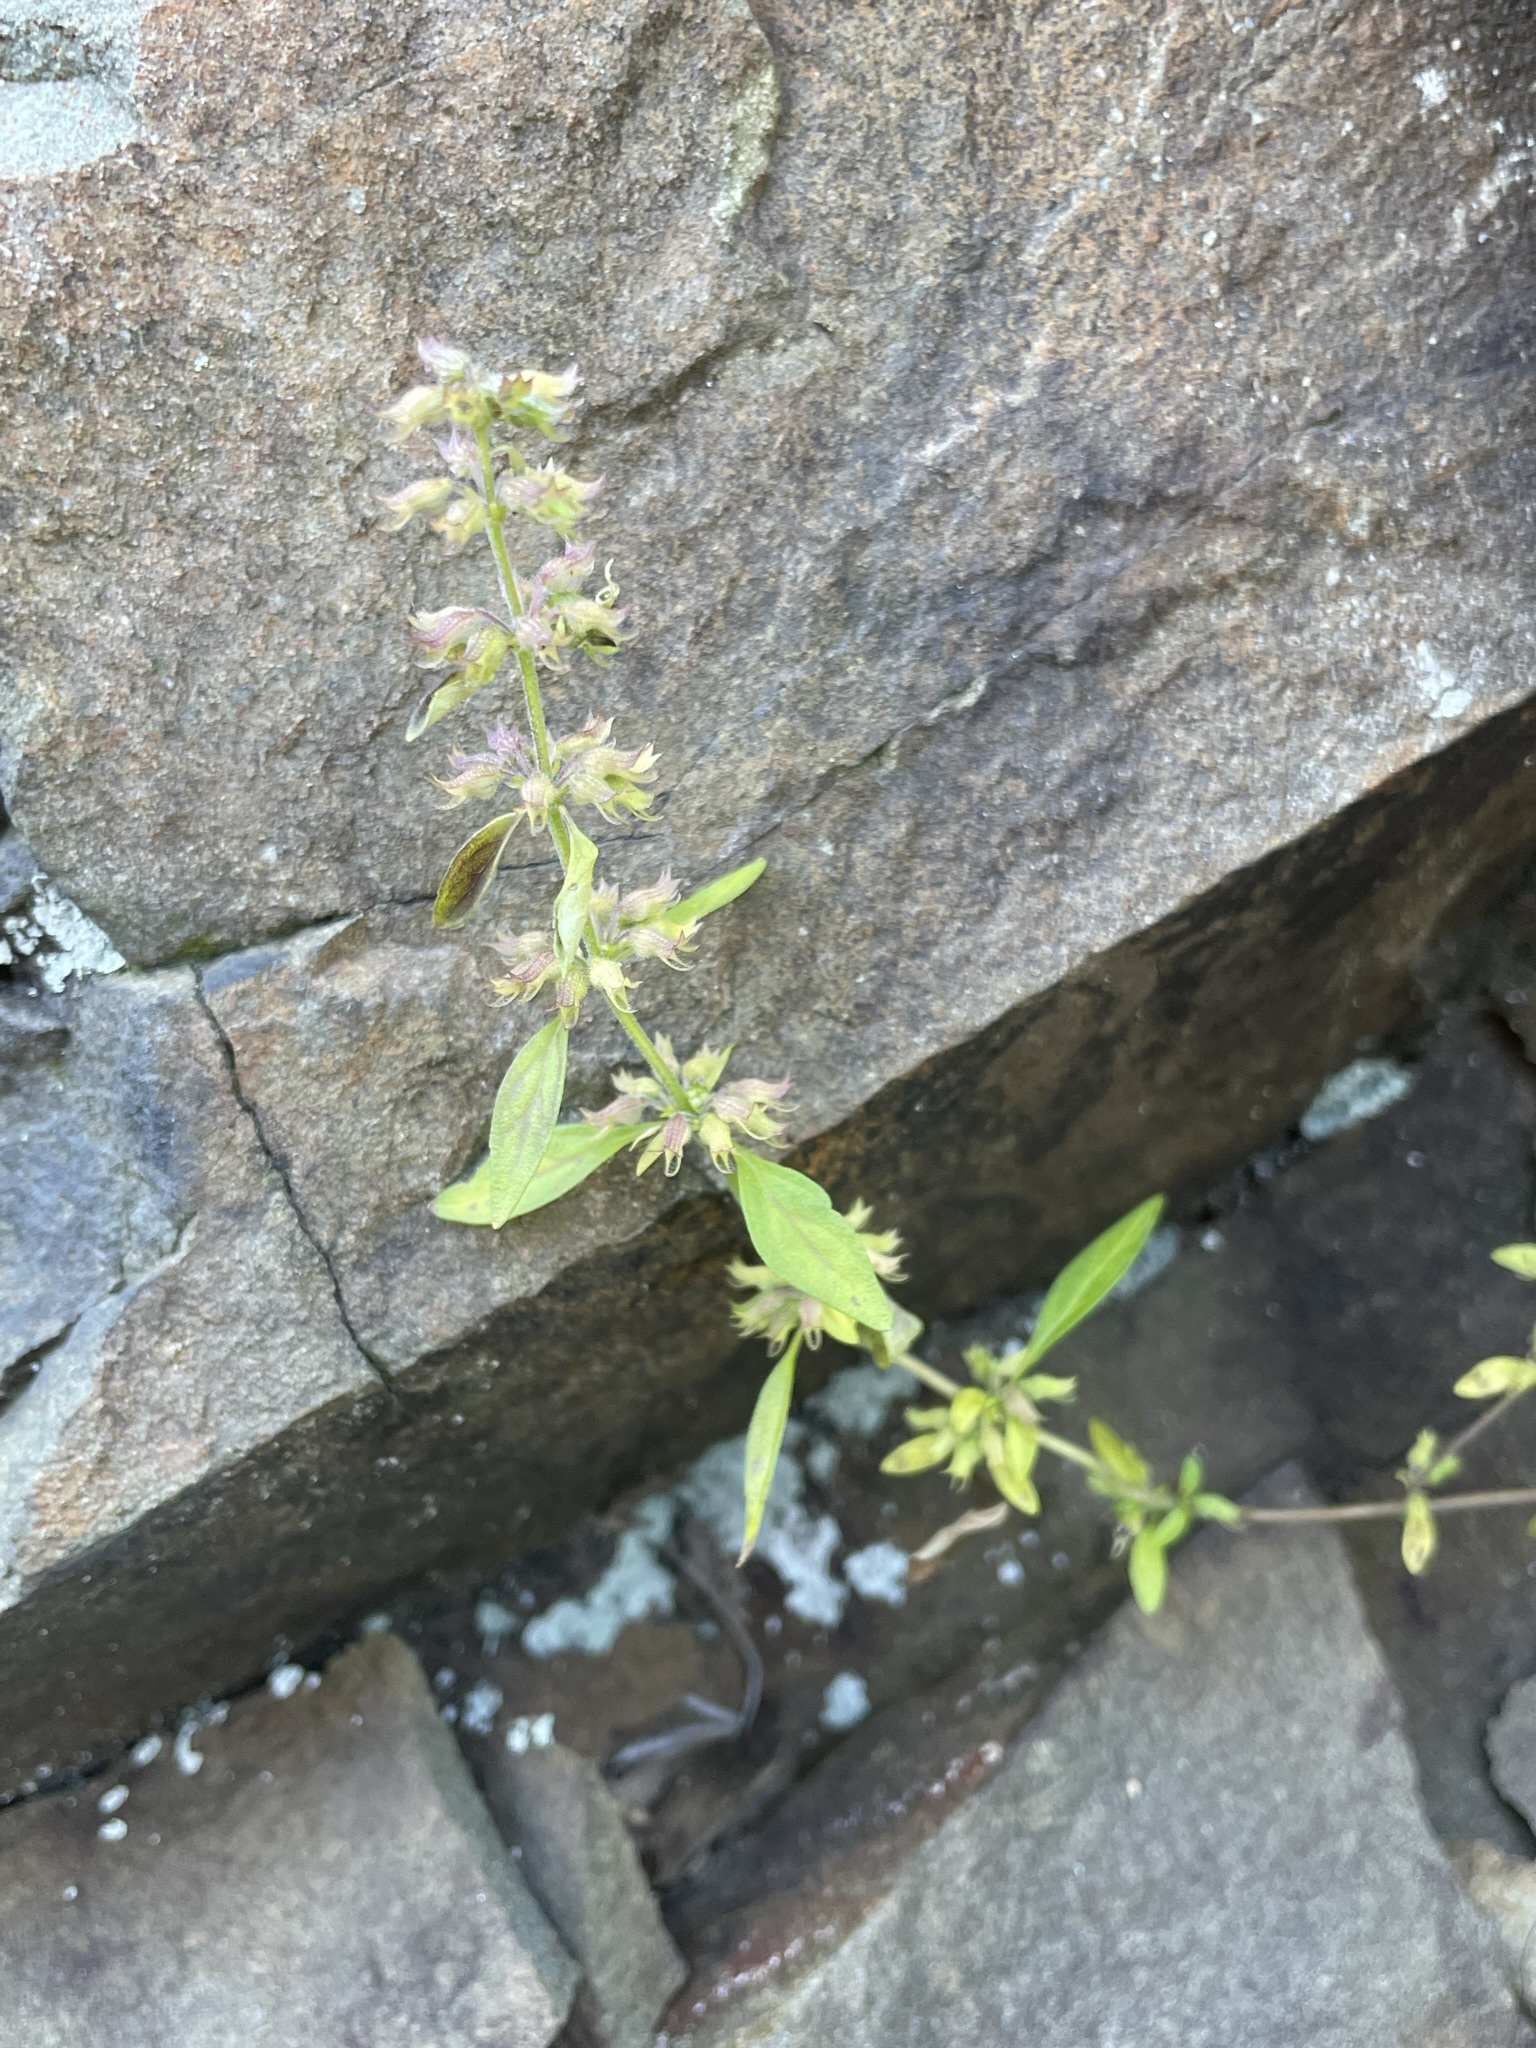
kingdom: Plantae
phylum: Tracheophyta
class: Magnoliopsida
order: Lamiales
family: Lamiaceae
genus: Hedeoma
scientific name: Hedeoma pulegioides
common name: American false pennyroyal
